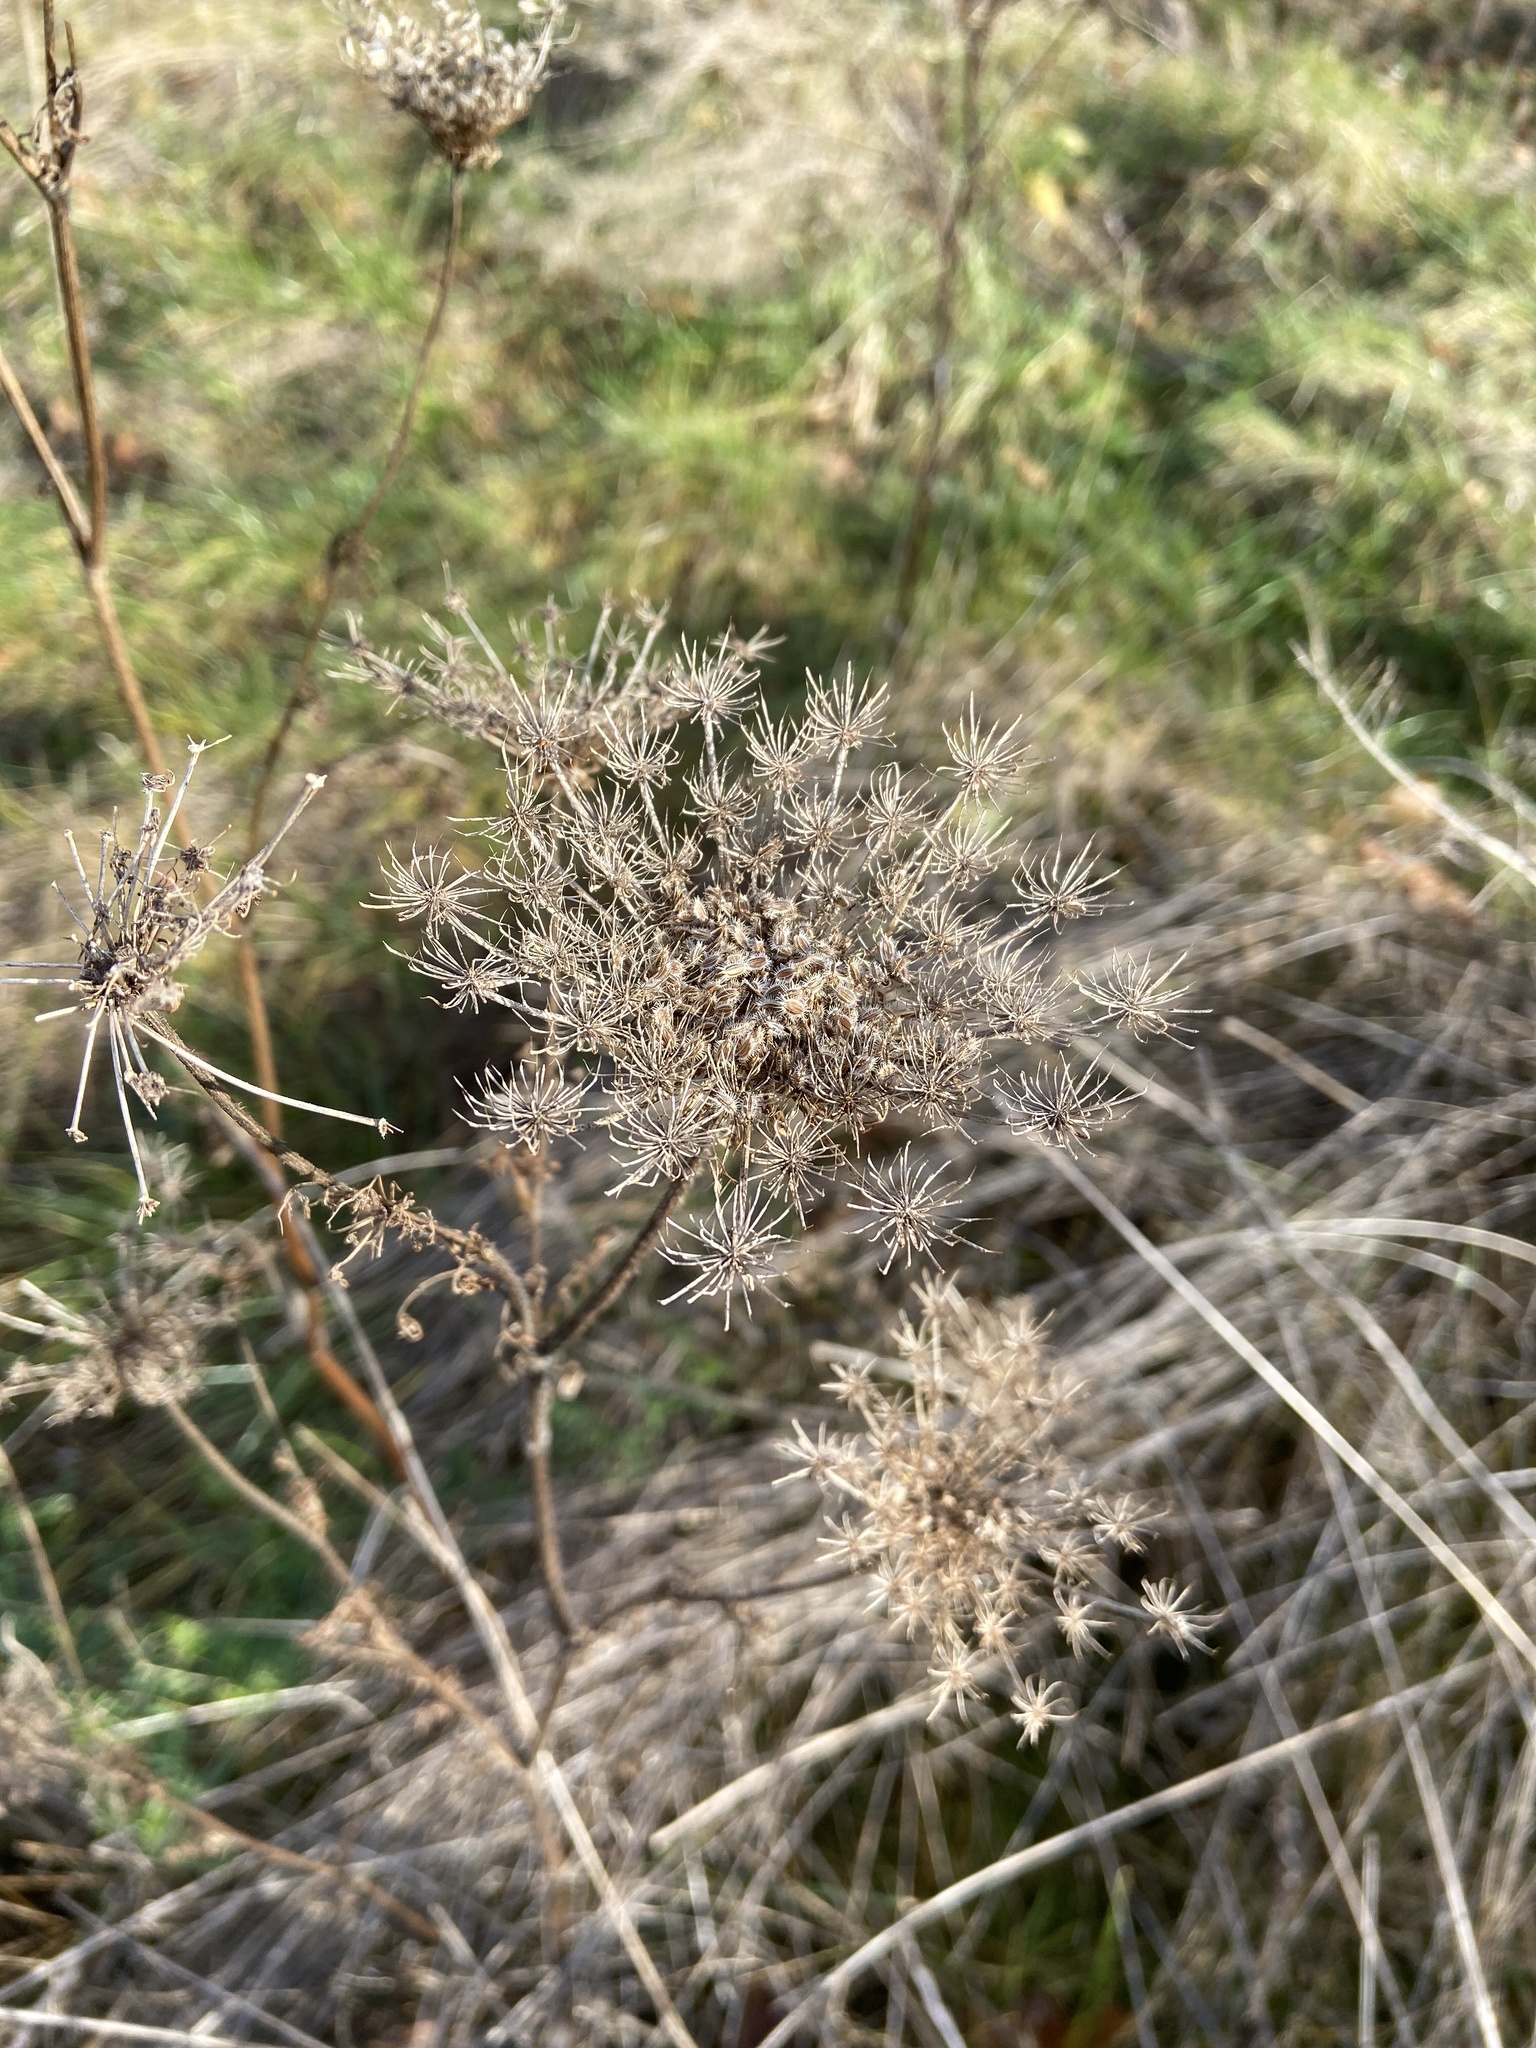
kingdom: Plantae
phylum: Tracheophyta
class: Magnoliopsida
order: Apiales
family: Apiaceae
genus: Daucus
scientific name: Daucus carota
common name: Wild carrot
